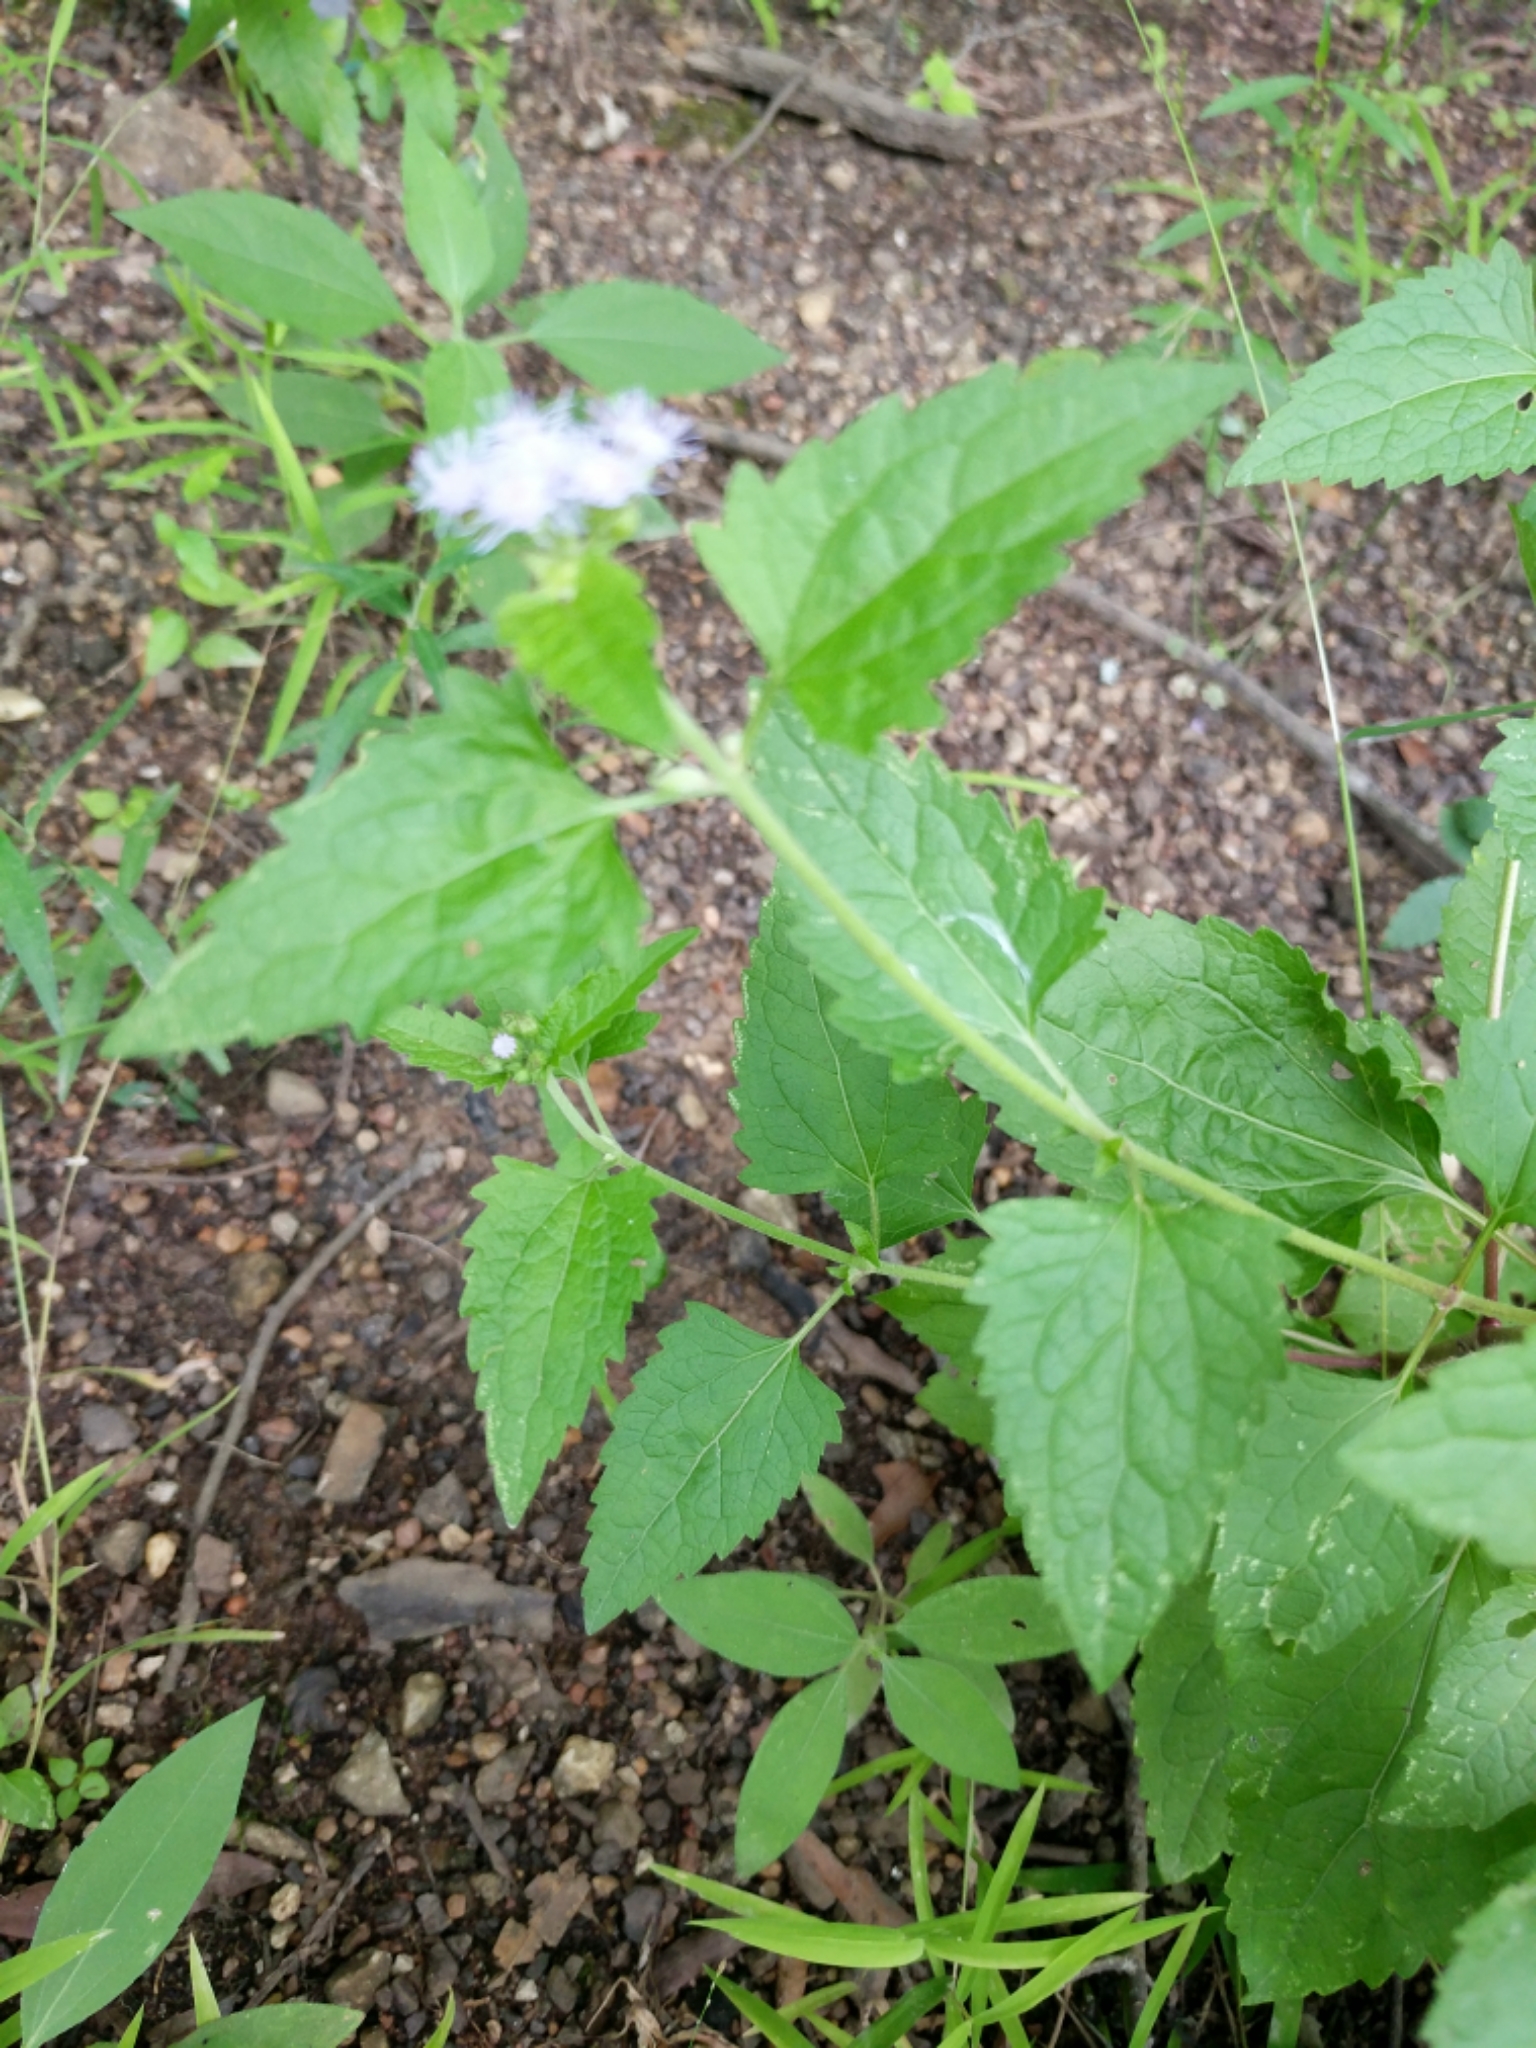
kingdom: Plantae
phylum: Tracheophyta
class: Magnoliopsida
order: Asterales
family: Asteraceae
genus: Conoclinium
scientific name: Conoclinium coelestinum
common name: Blue mistflower
